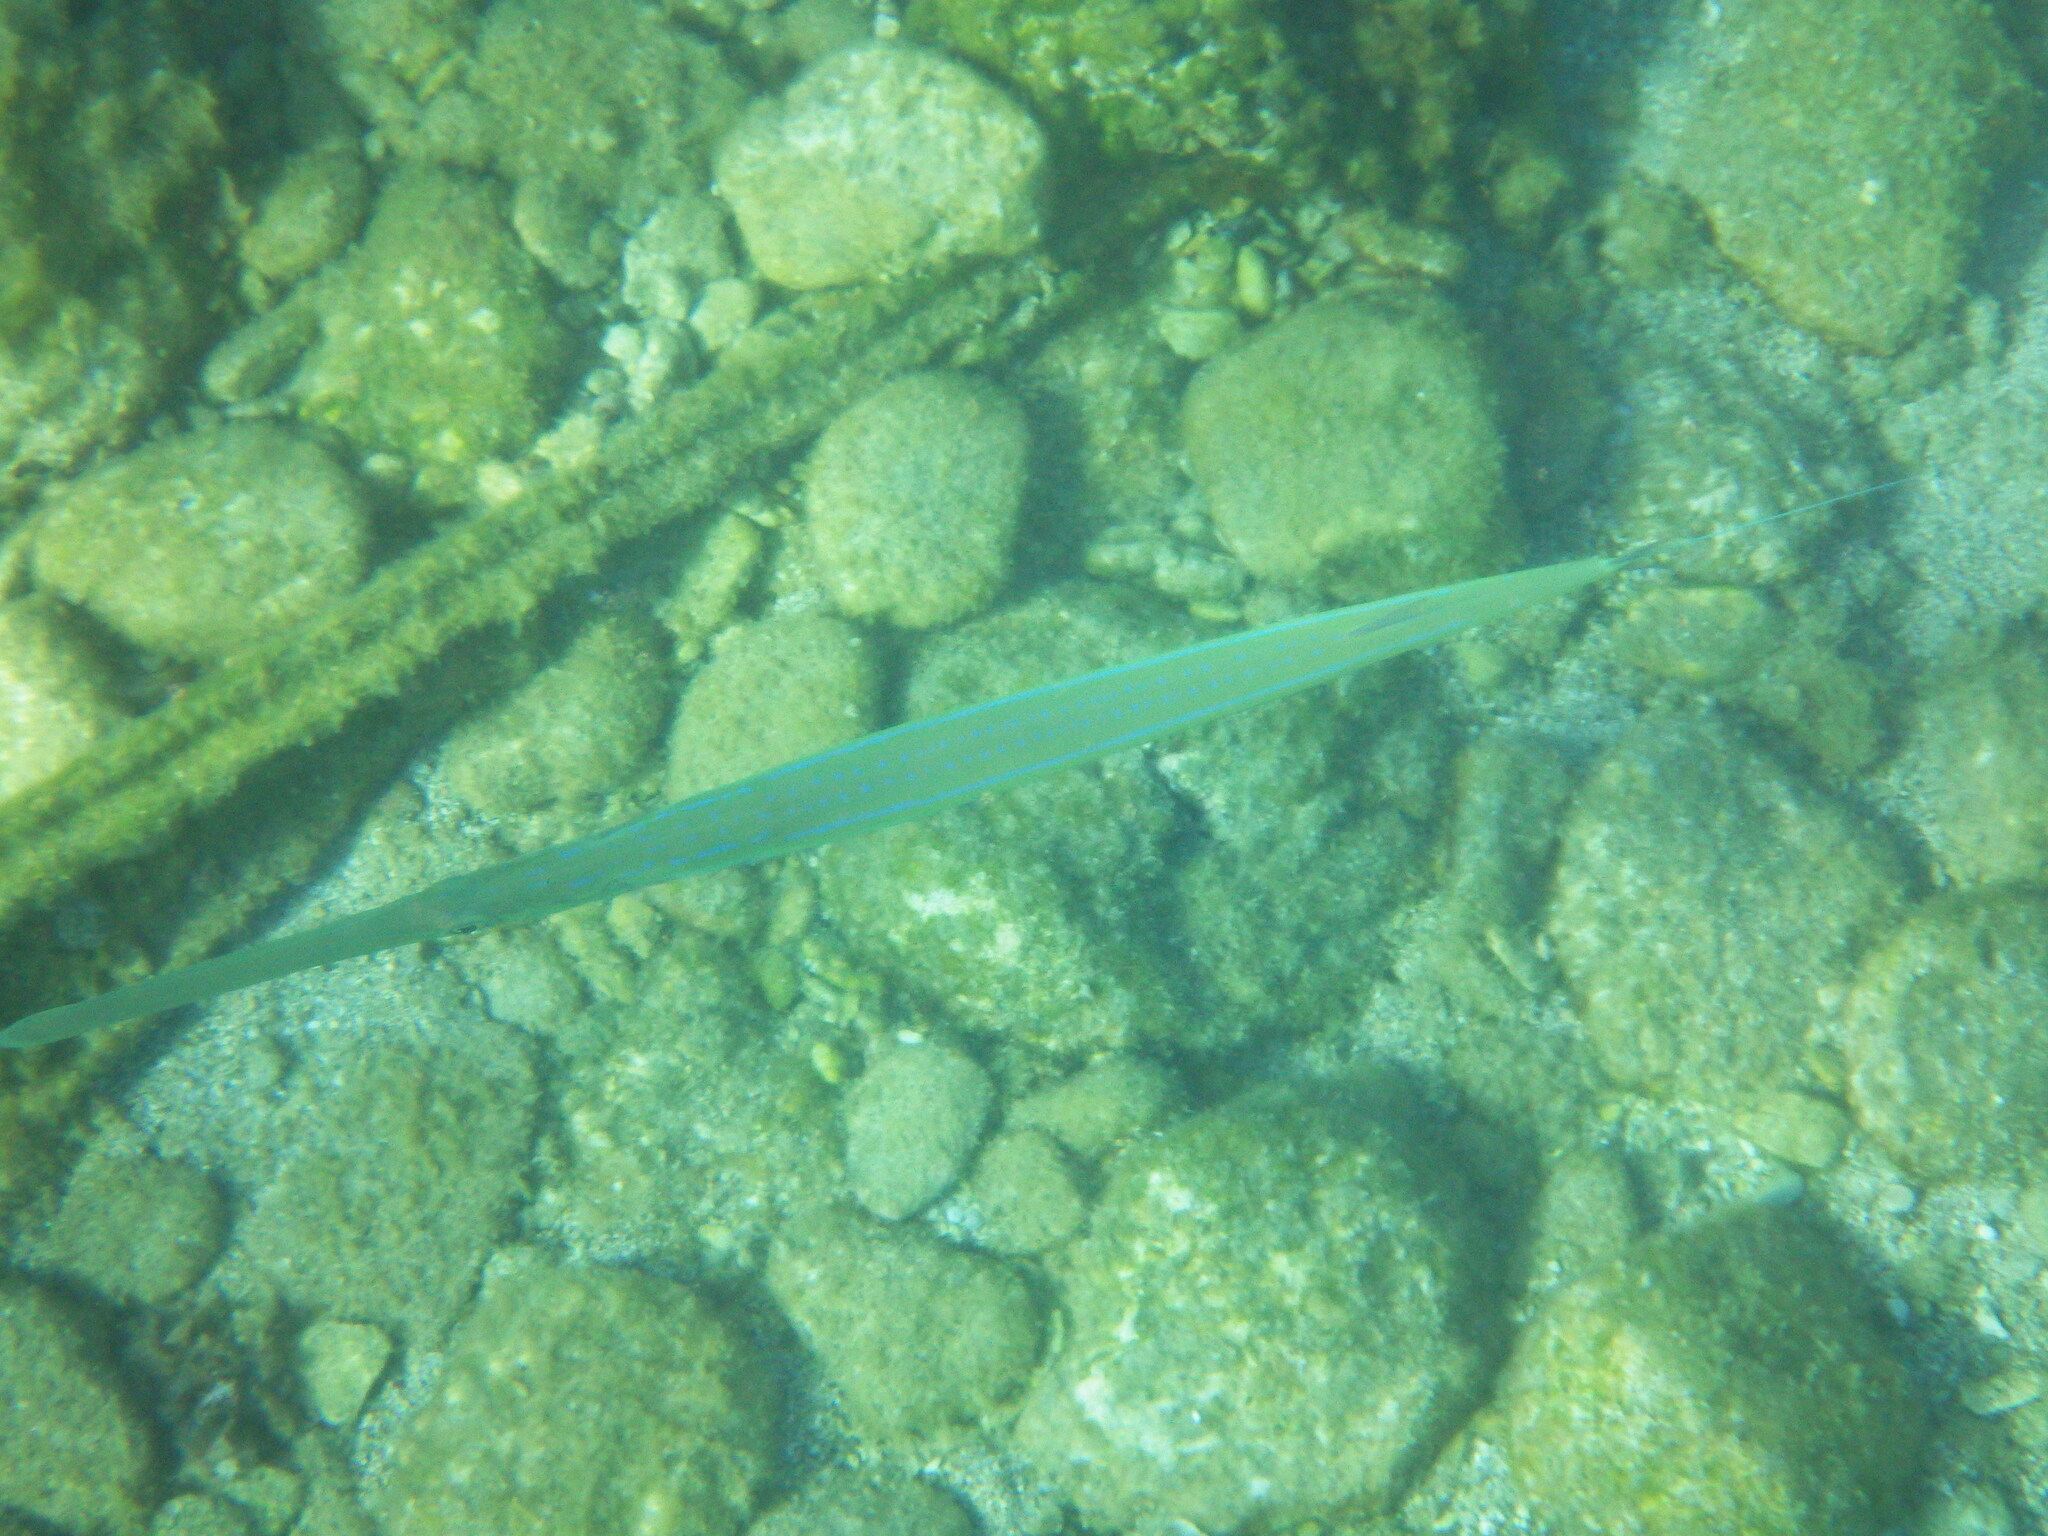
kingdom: Animalia
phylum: Chordata
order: Syngnathiformes
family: Fistulariidae
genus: Fistularia
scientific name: Fistularia commersonii
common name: Bluespotted cornetfish
